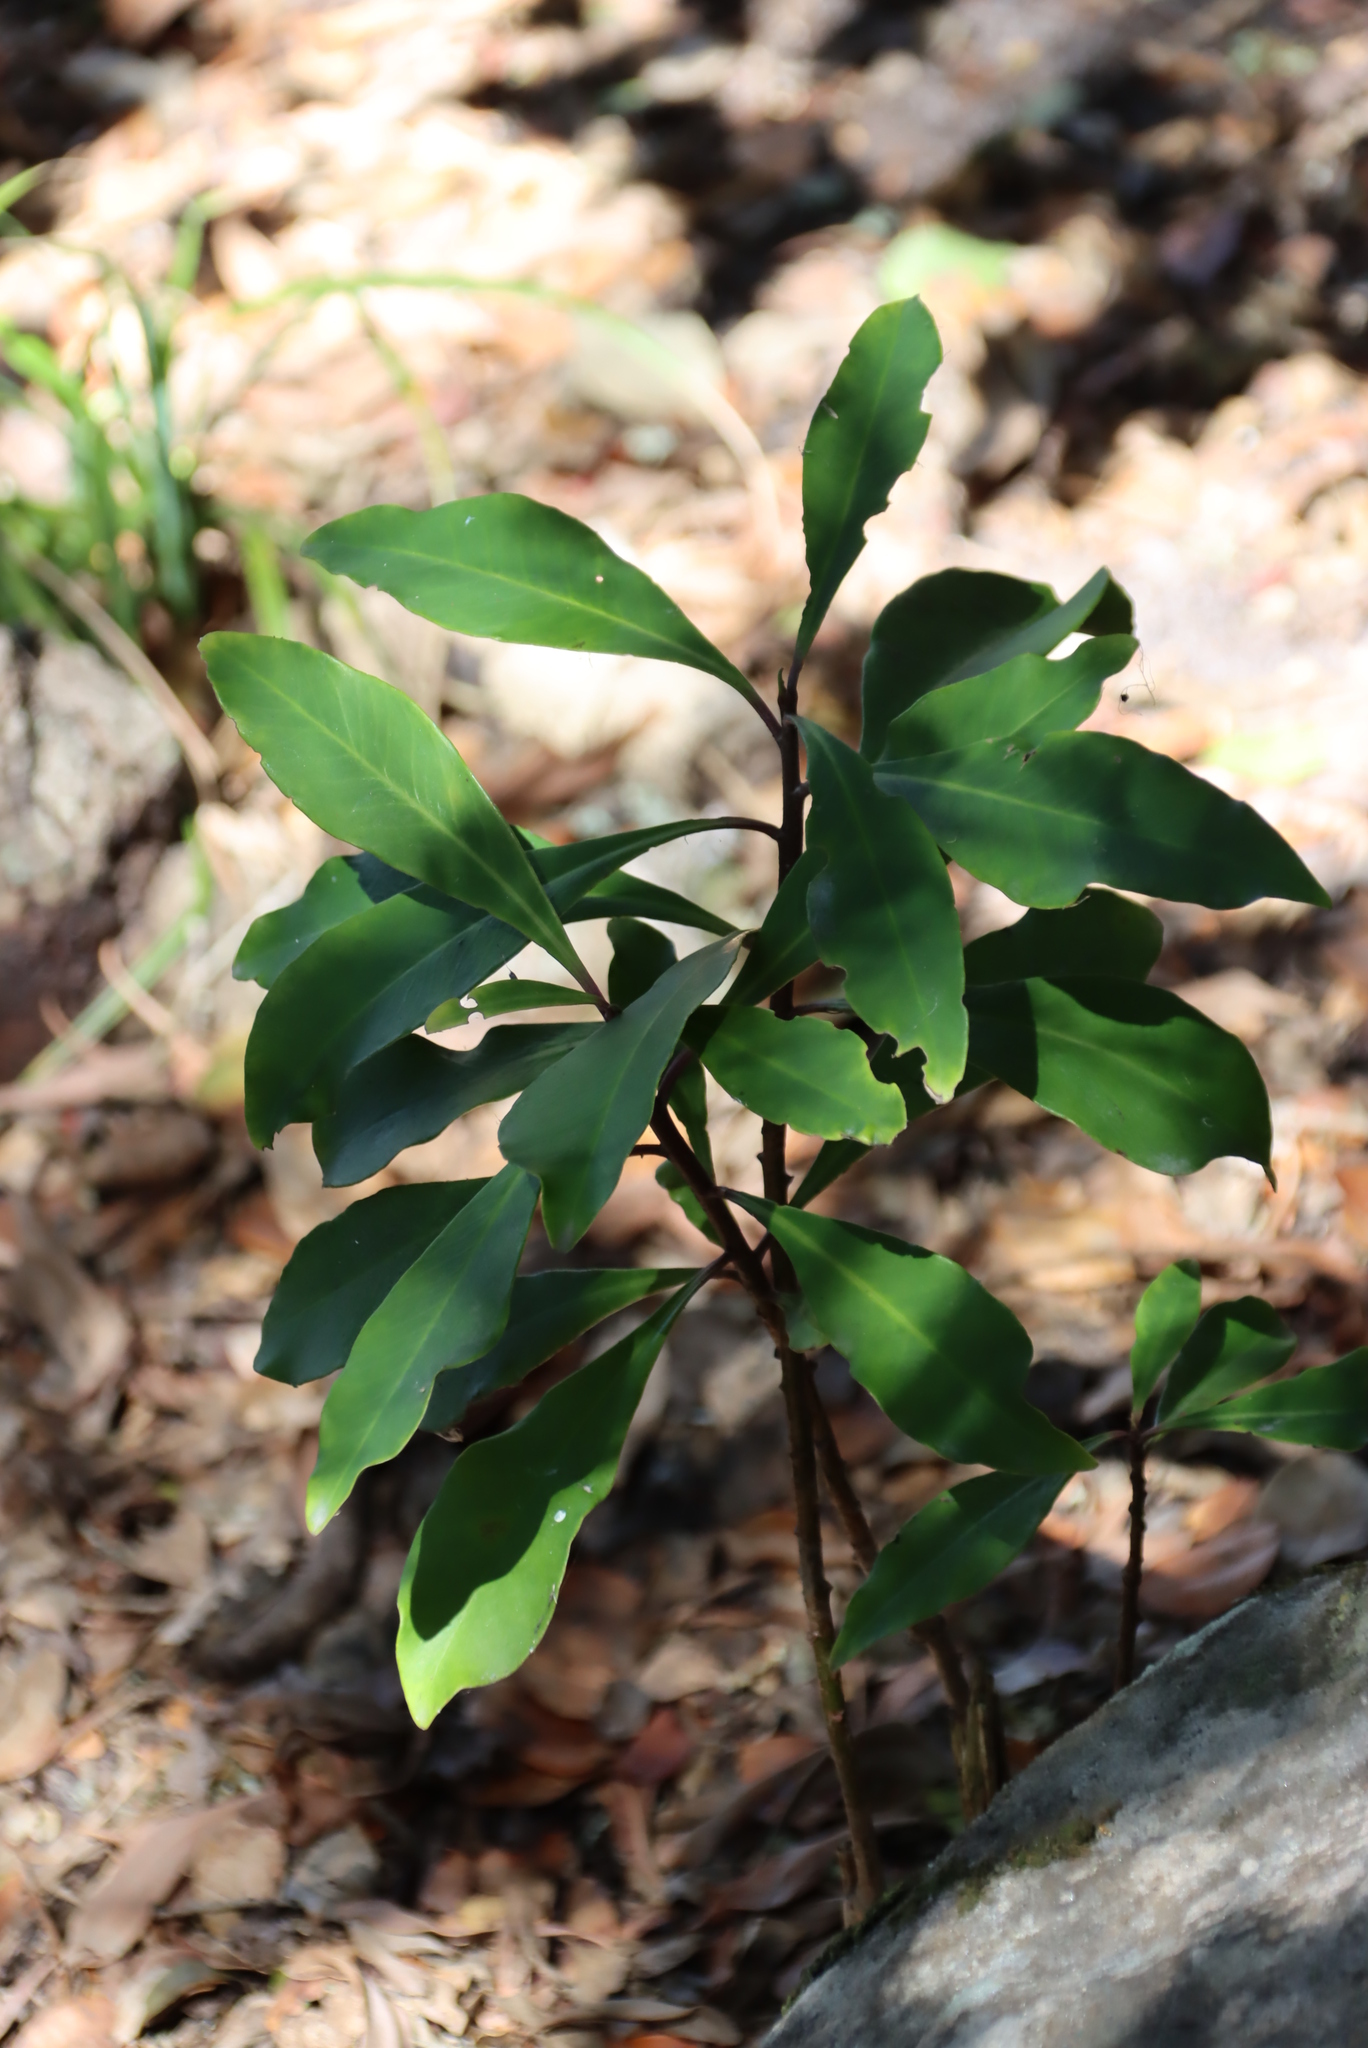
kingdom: Plantae
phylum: Tracheophyta
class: Magnoliopsida
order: Ericales
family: Primulaceae
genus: Myrsine
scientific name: Myrsine melanophloeos
